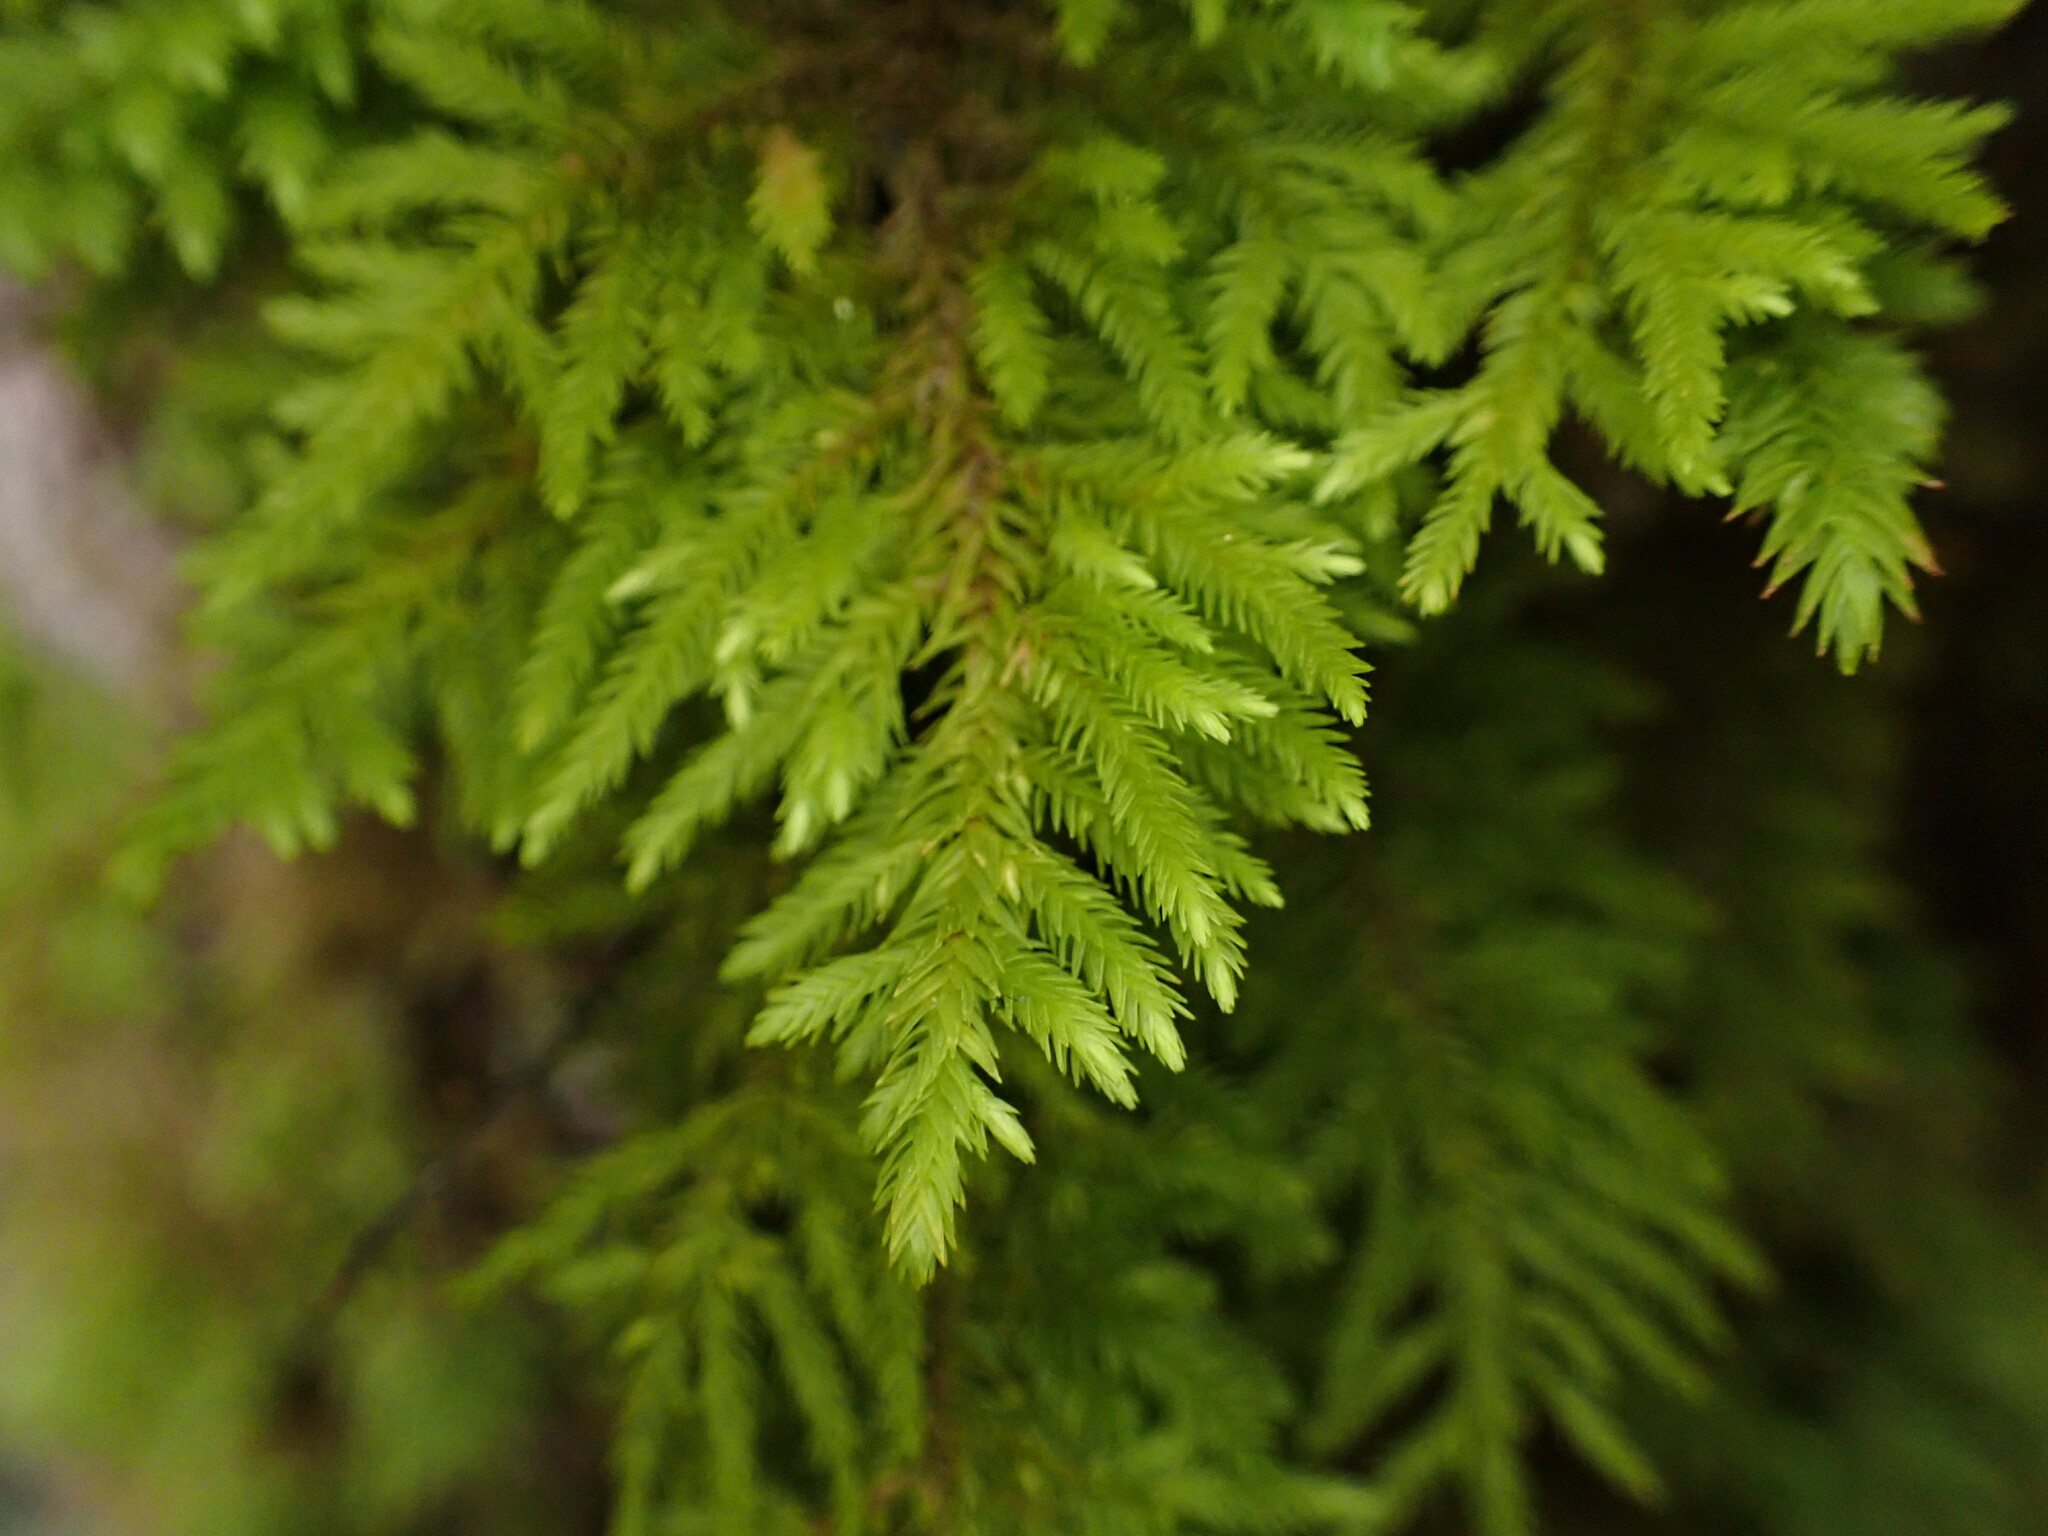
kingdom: Plantae
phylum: Bryophyta
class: Bryopsida
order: Hypnales
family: Cryphaeaceae
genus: Dendroalsia
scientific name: Dendroalsia abietina
